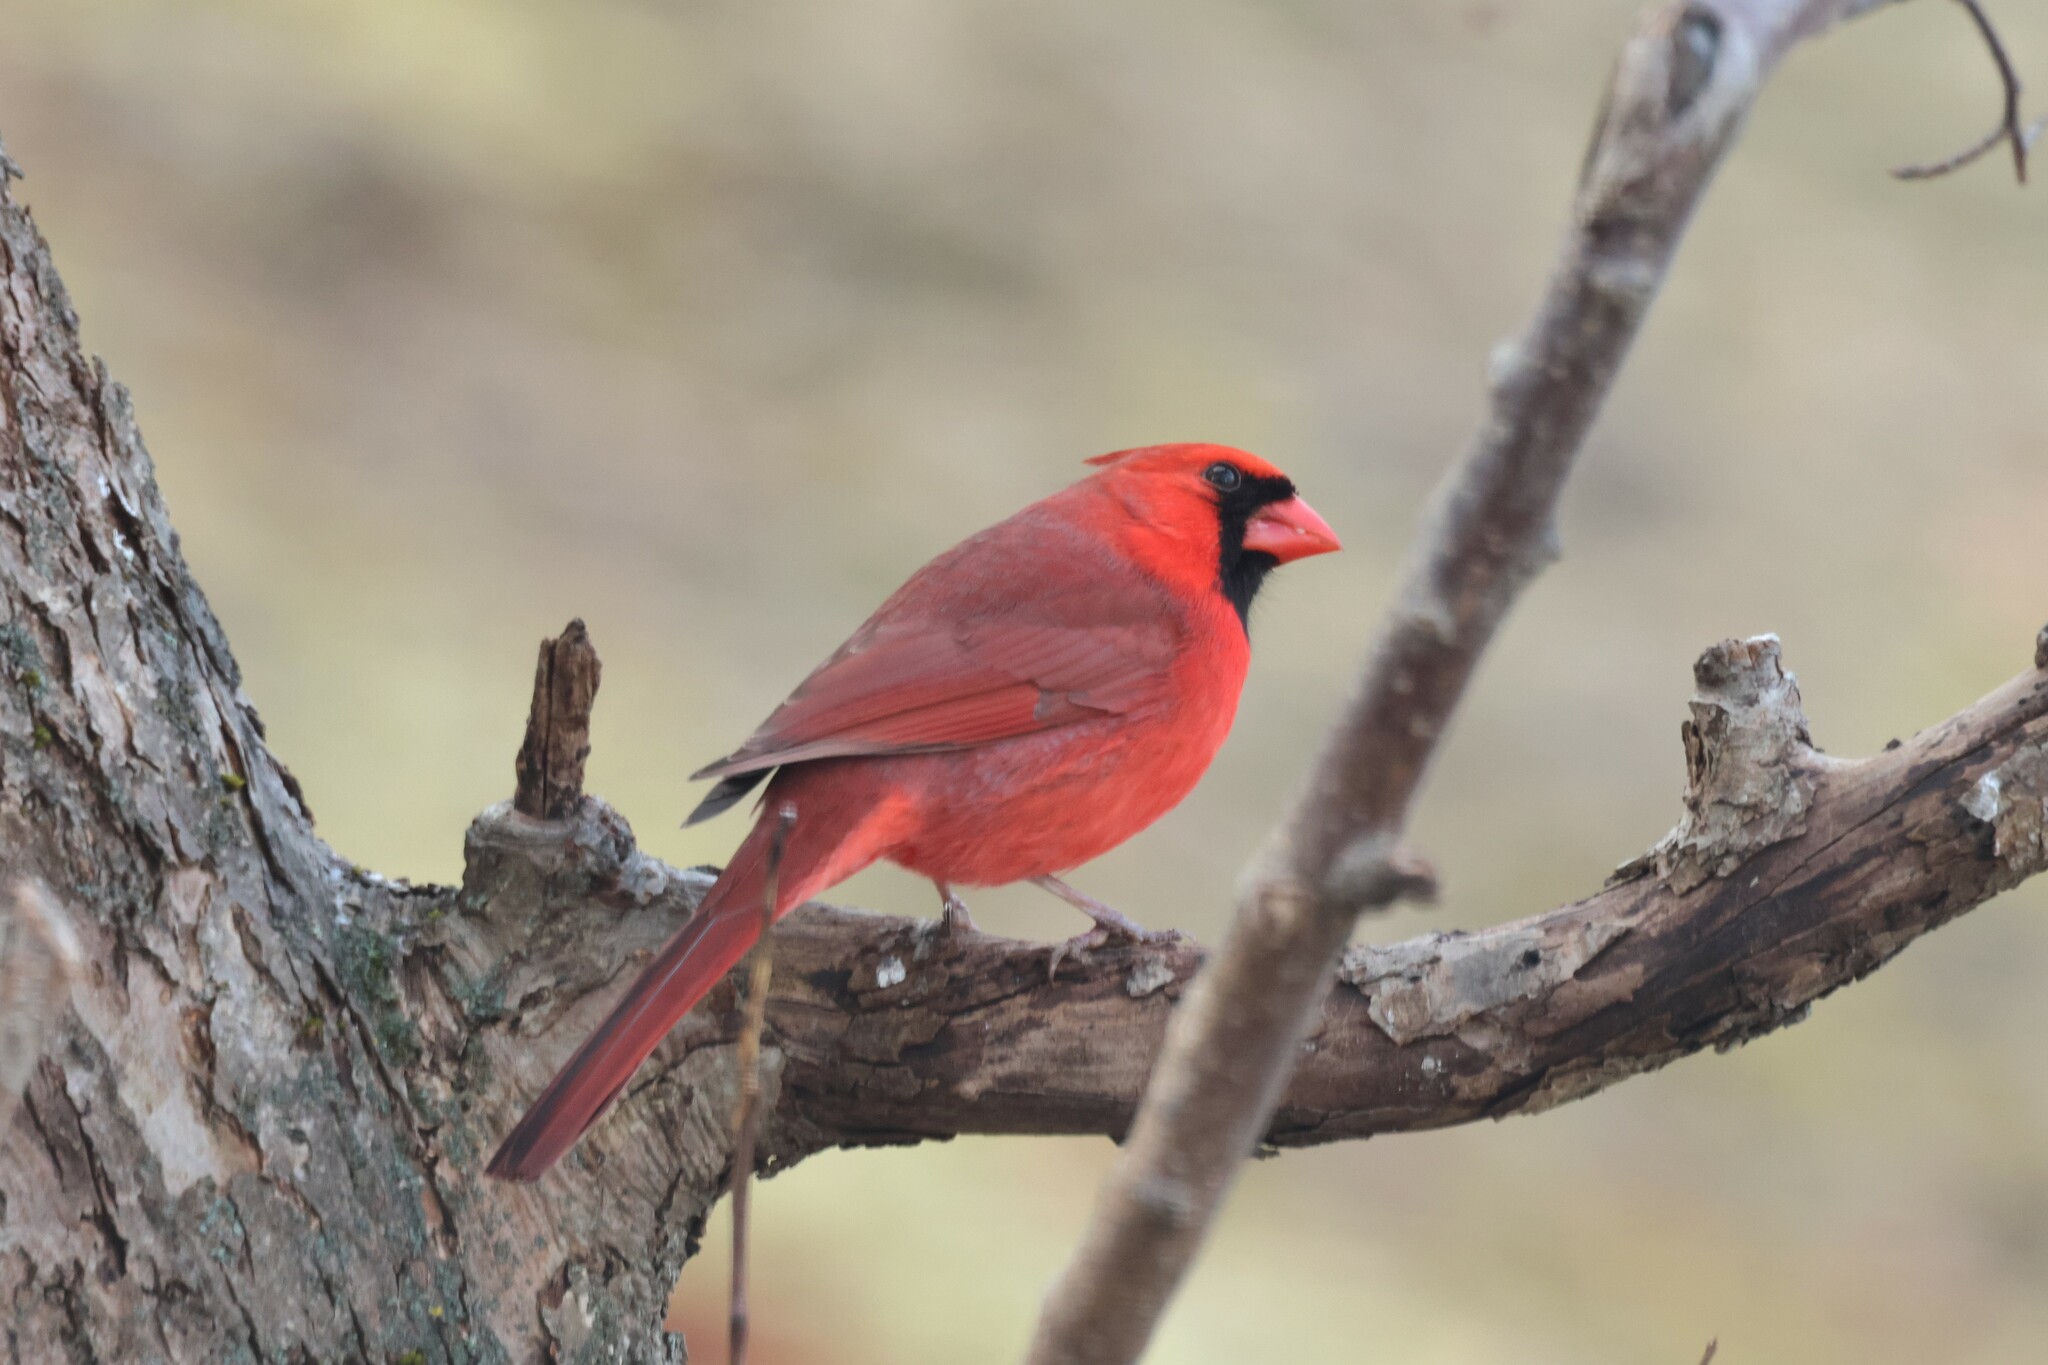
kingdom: Animalia
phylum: Chordata
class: Aves
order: Passeriformes
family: Cardinalidae
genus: Cardinalis
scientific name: Cardinalis cardinalis
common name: Northern cardinal
